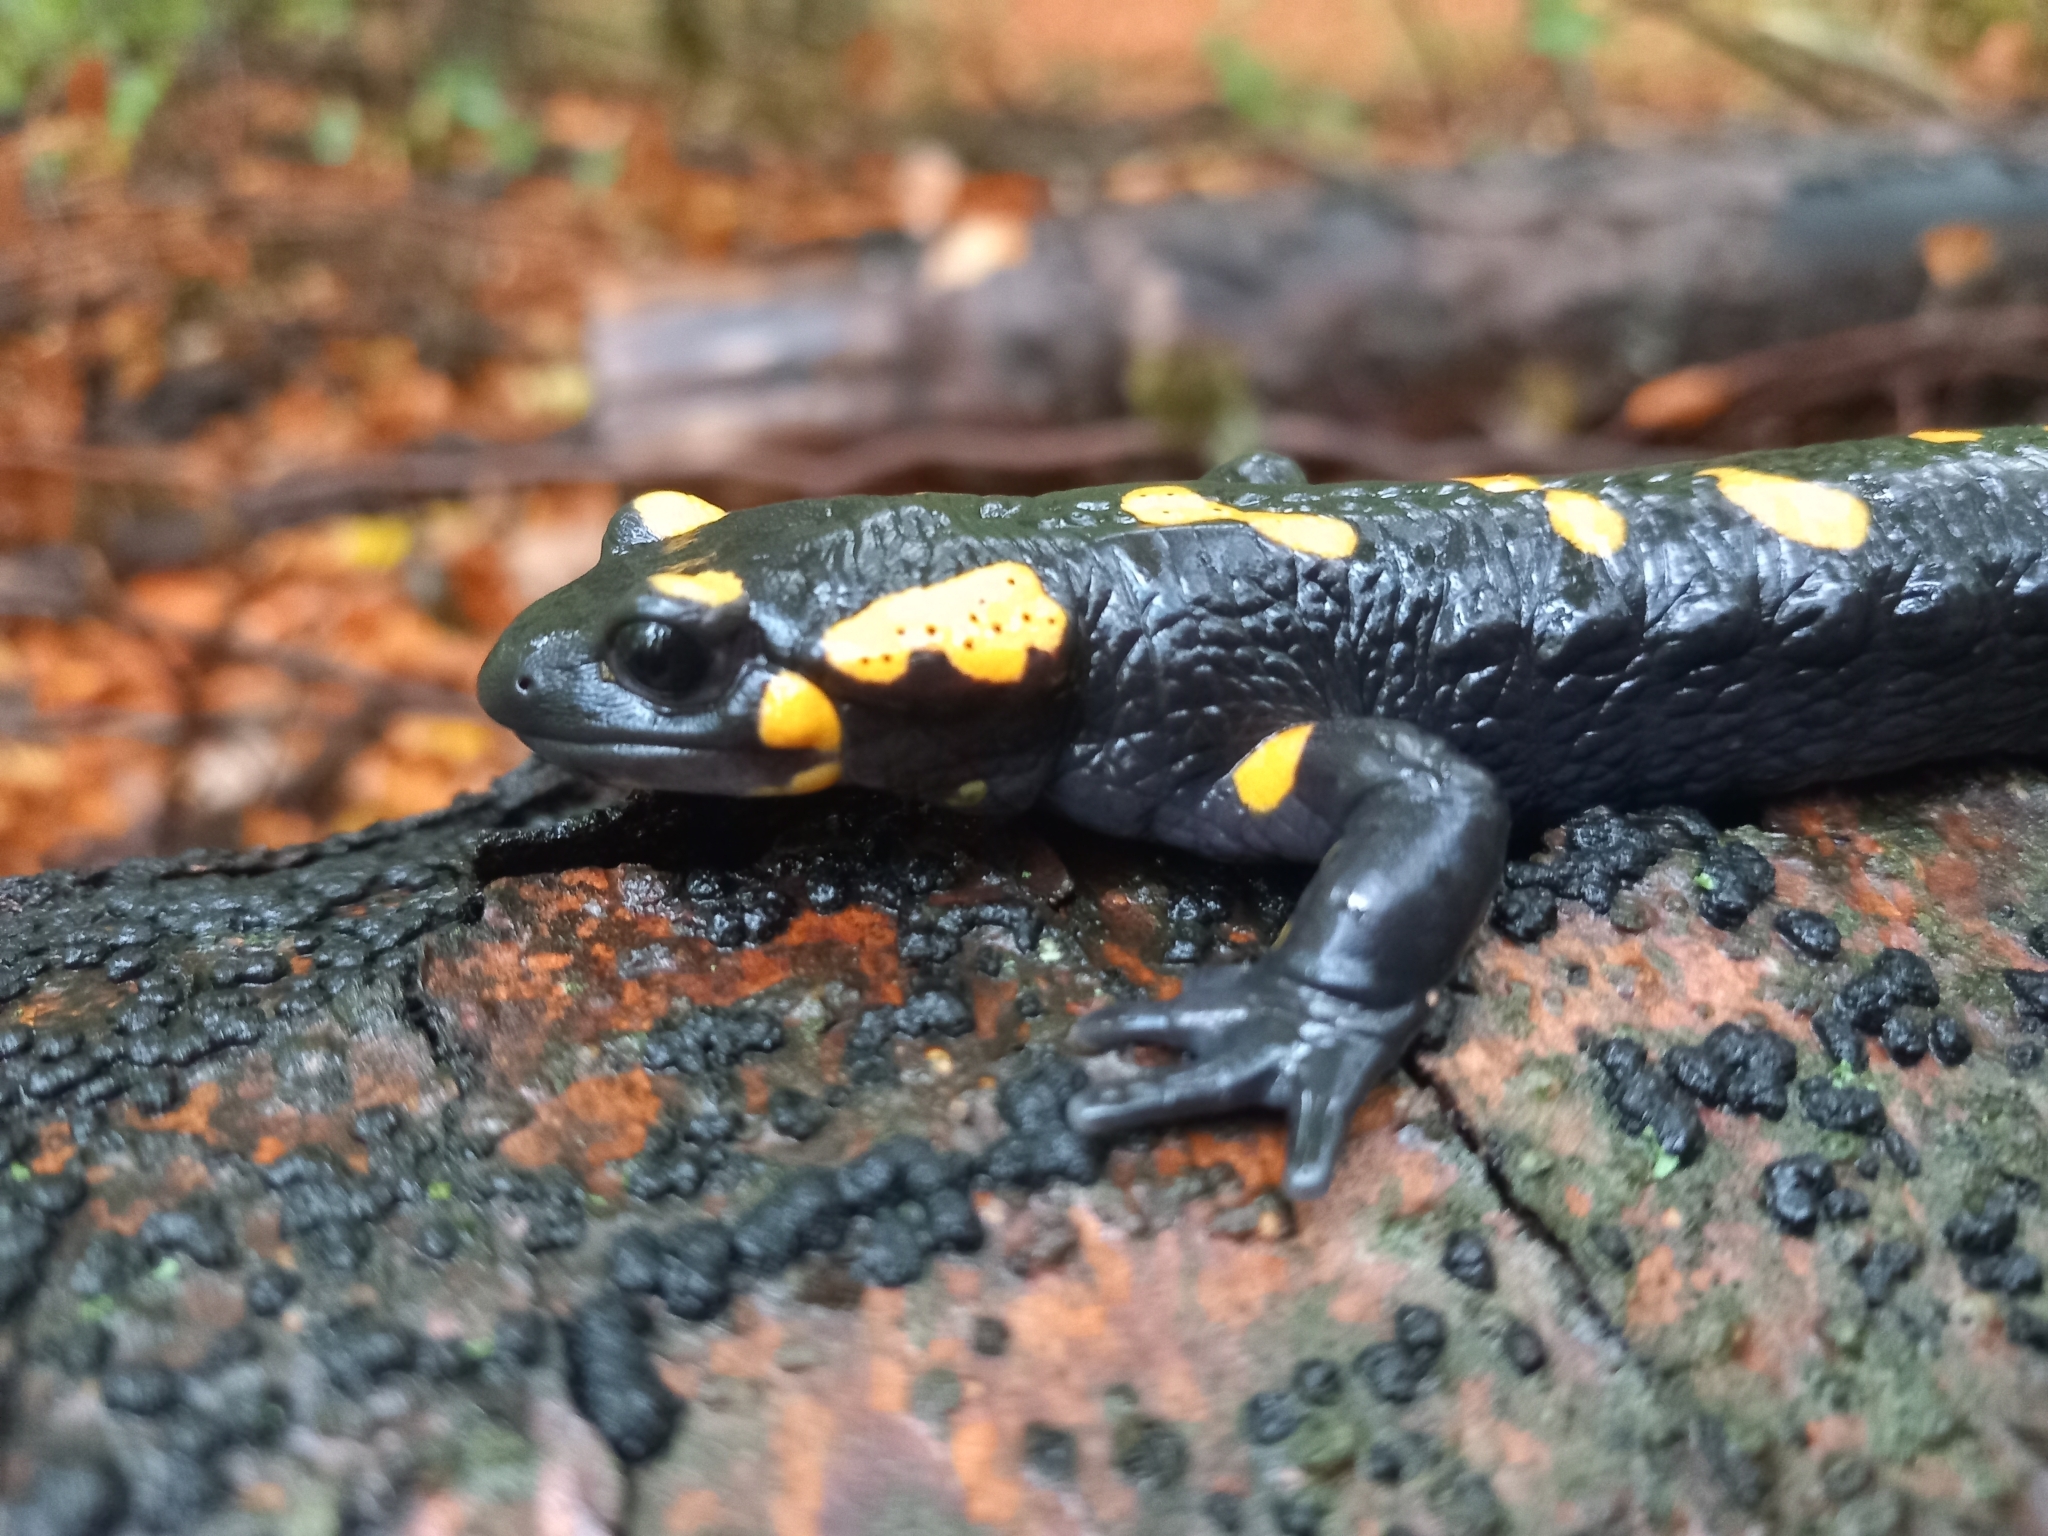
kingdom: Animalia
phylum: Chordata
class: Amphibia
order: Caudata
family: Salamandridae
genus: Salamandra
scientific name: Salamandra salamandra
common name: Fire salamander
